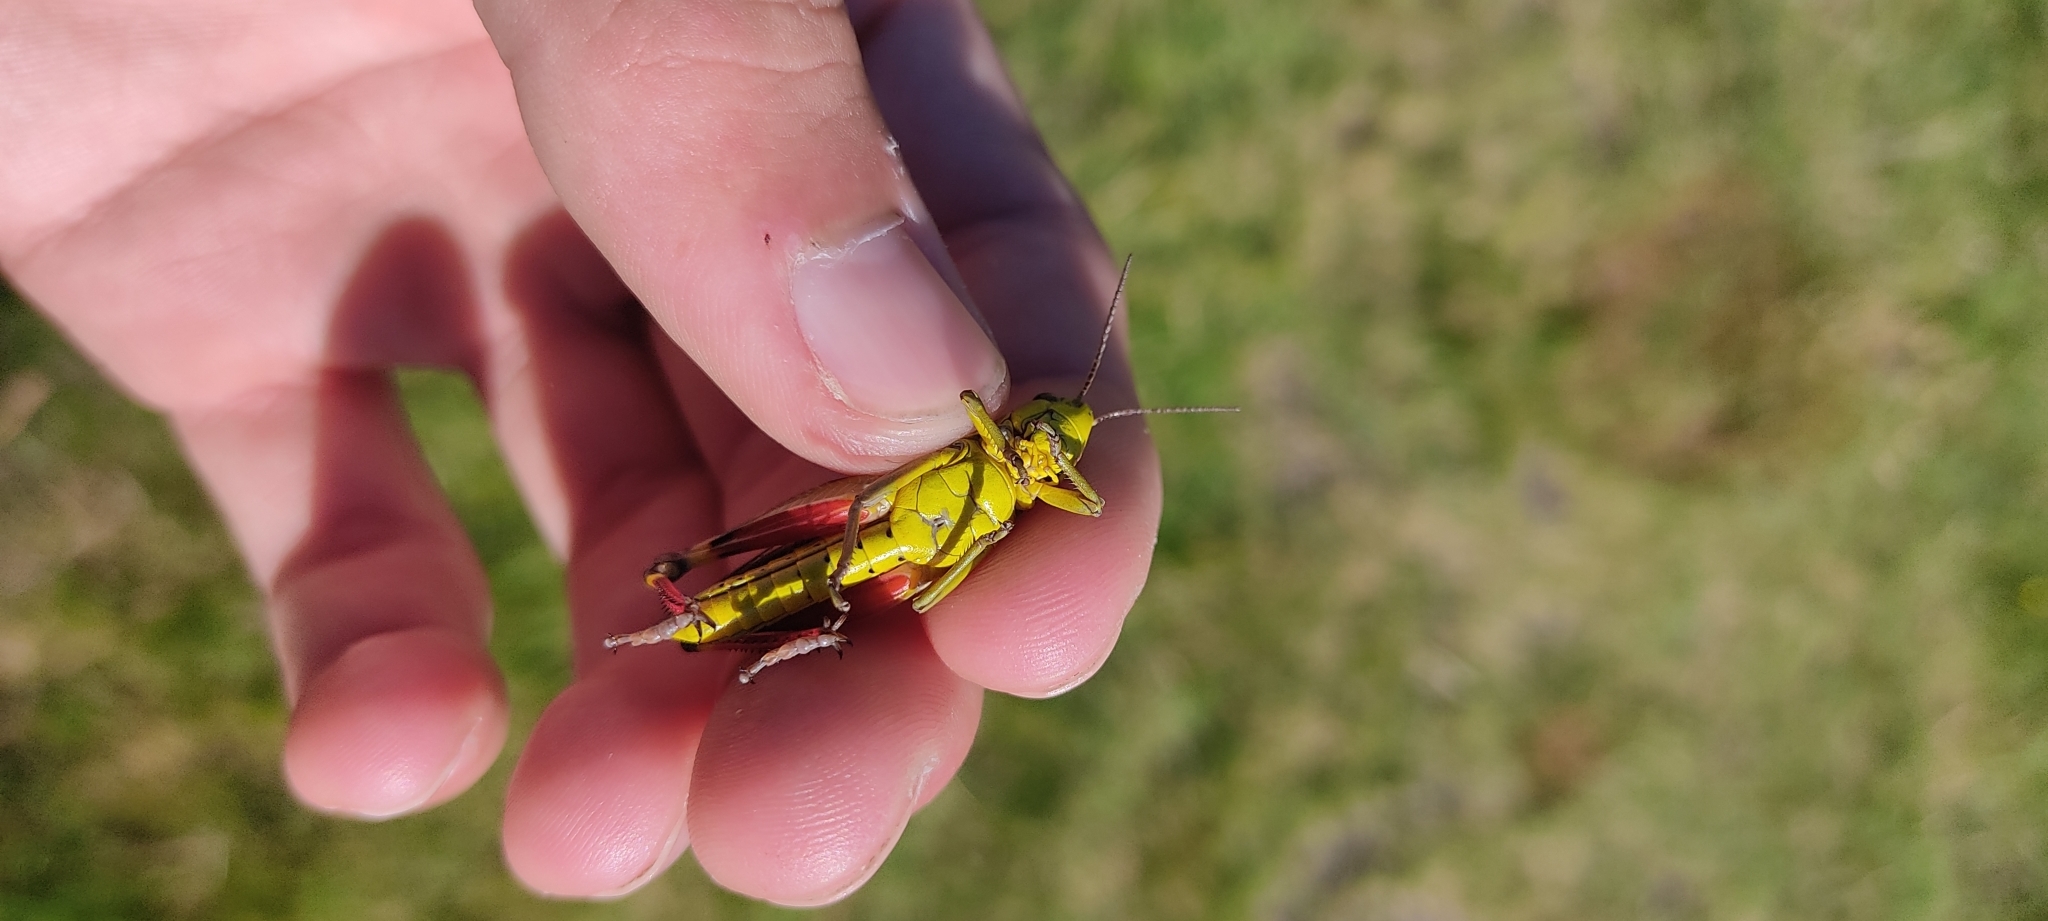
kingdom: Animalia
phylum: Arthropoda
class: Insecta
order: Orthoptera
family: Acrididae
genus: Arcyptera
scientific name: Arcyptera fusca
